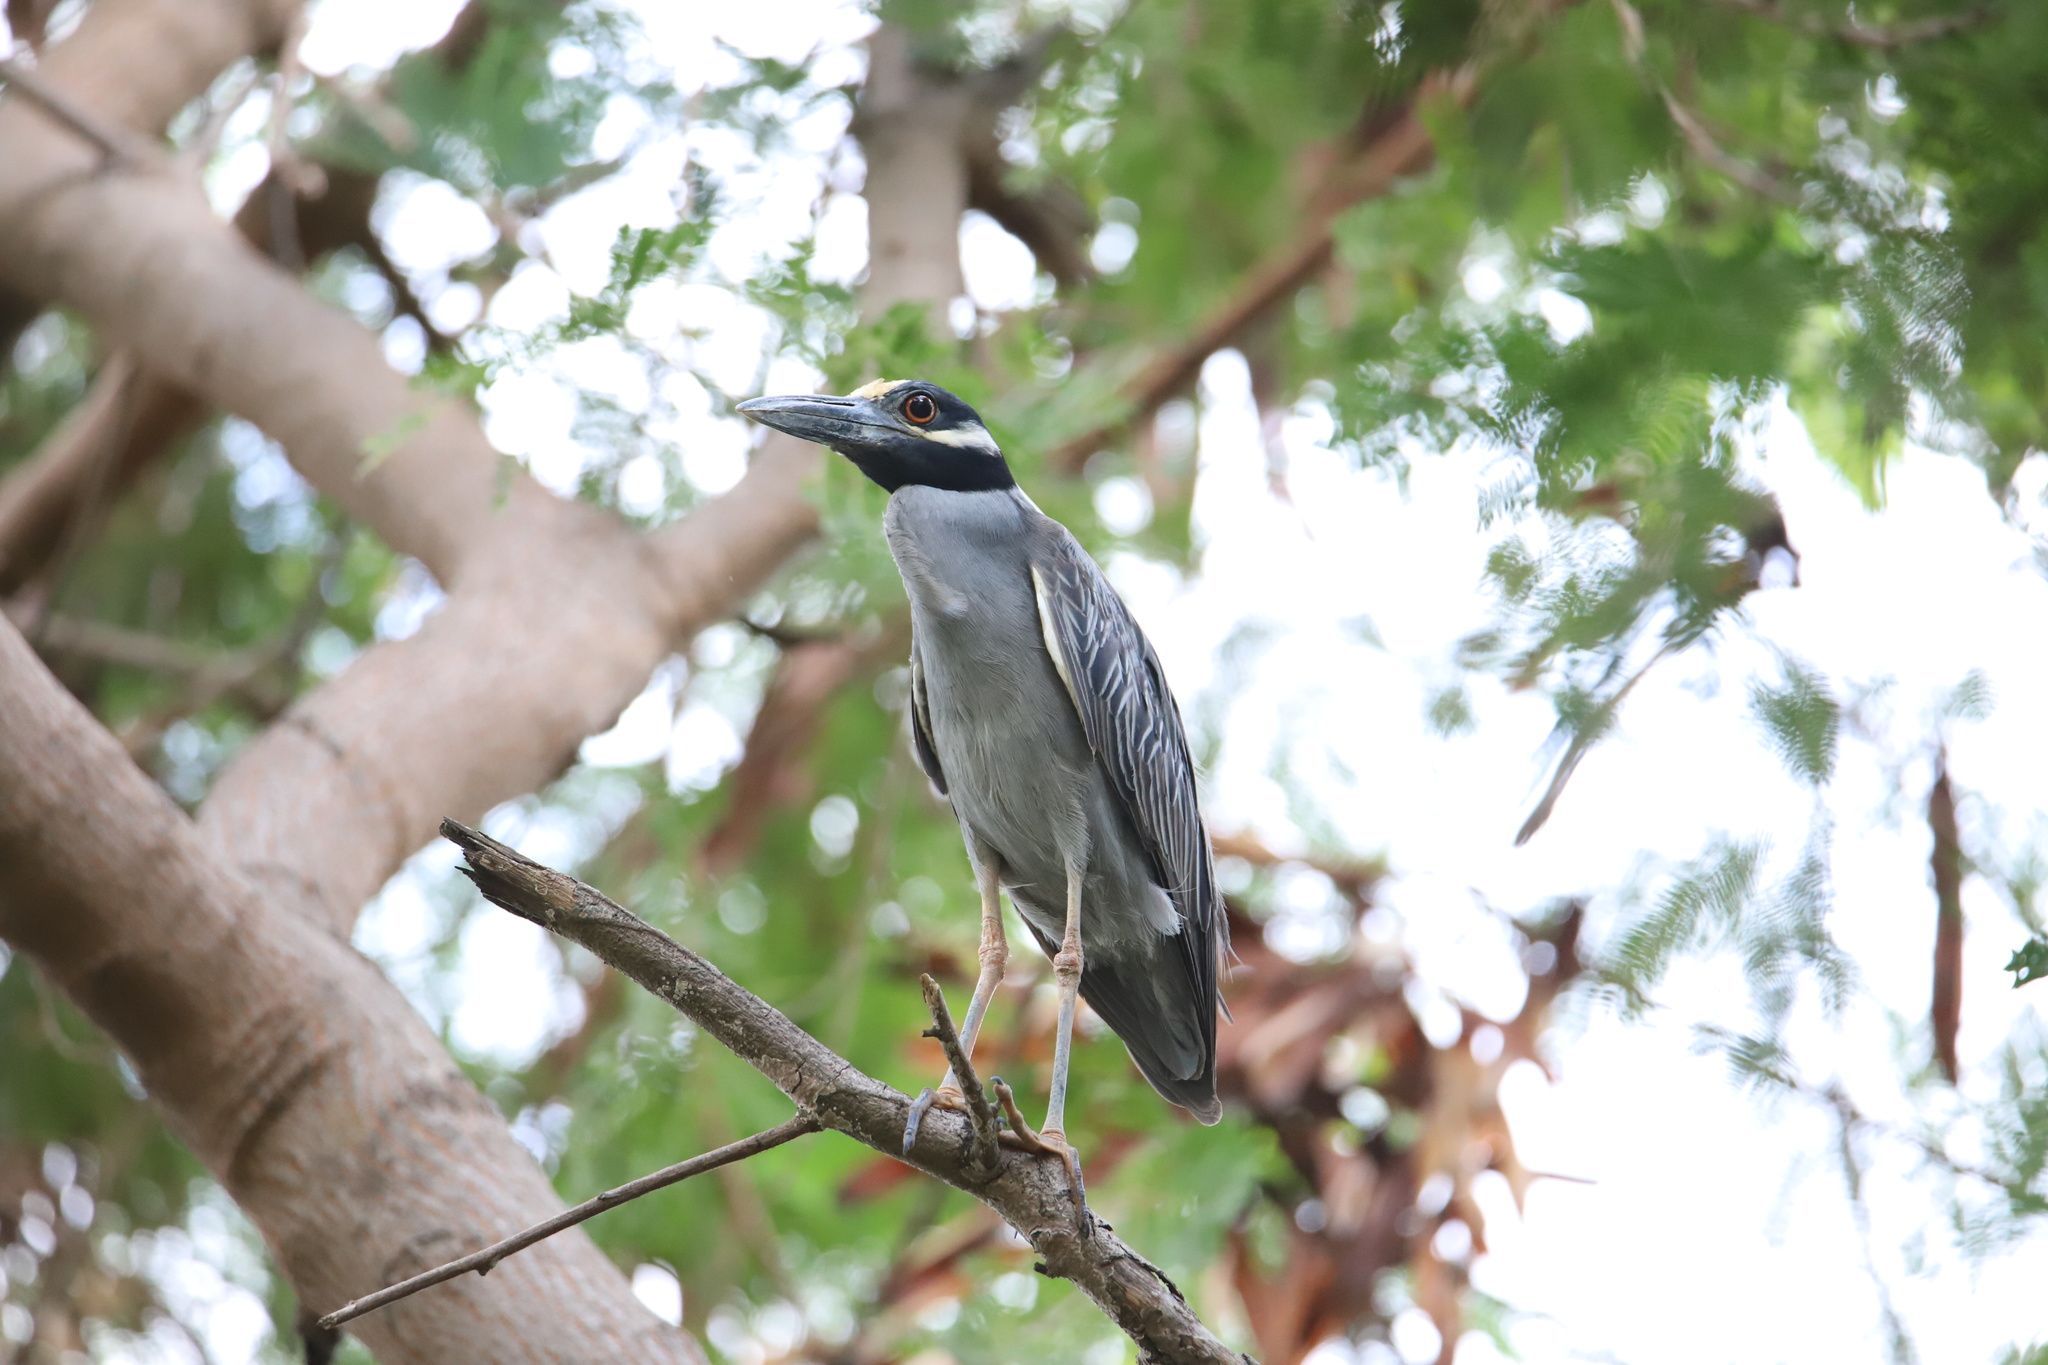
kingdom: Animalia
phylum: Chordata
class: Aves
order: Pelecaniformes
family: Ardeidae
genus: Nyctanassa
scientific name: Nyctanassa violacea
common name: Yellow-crowned night heron
